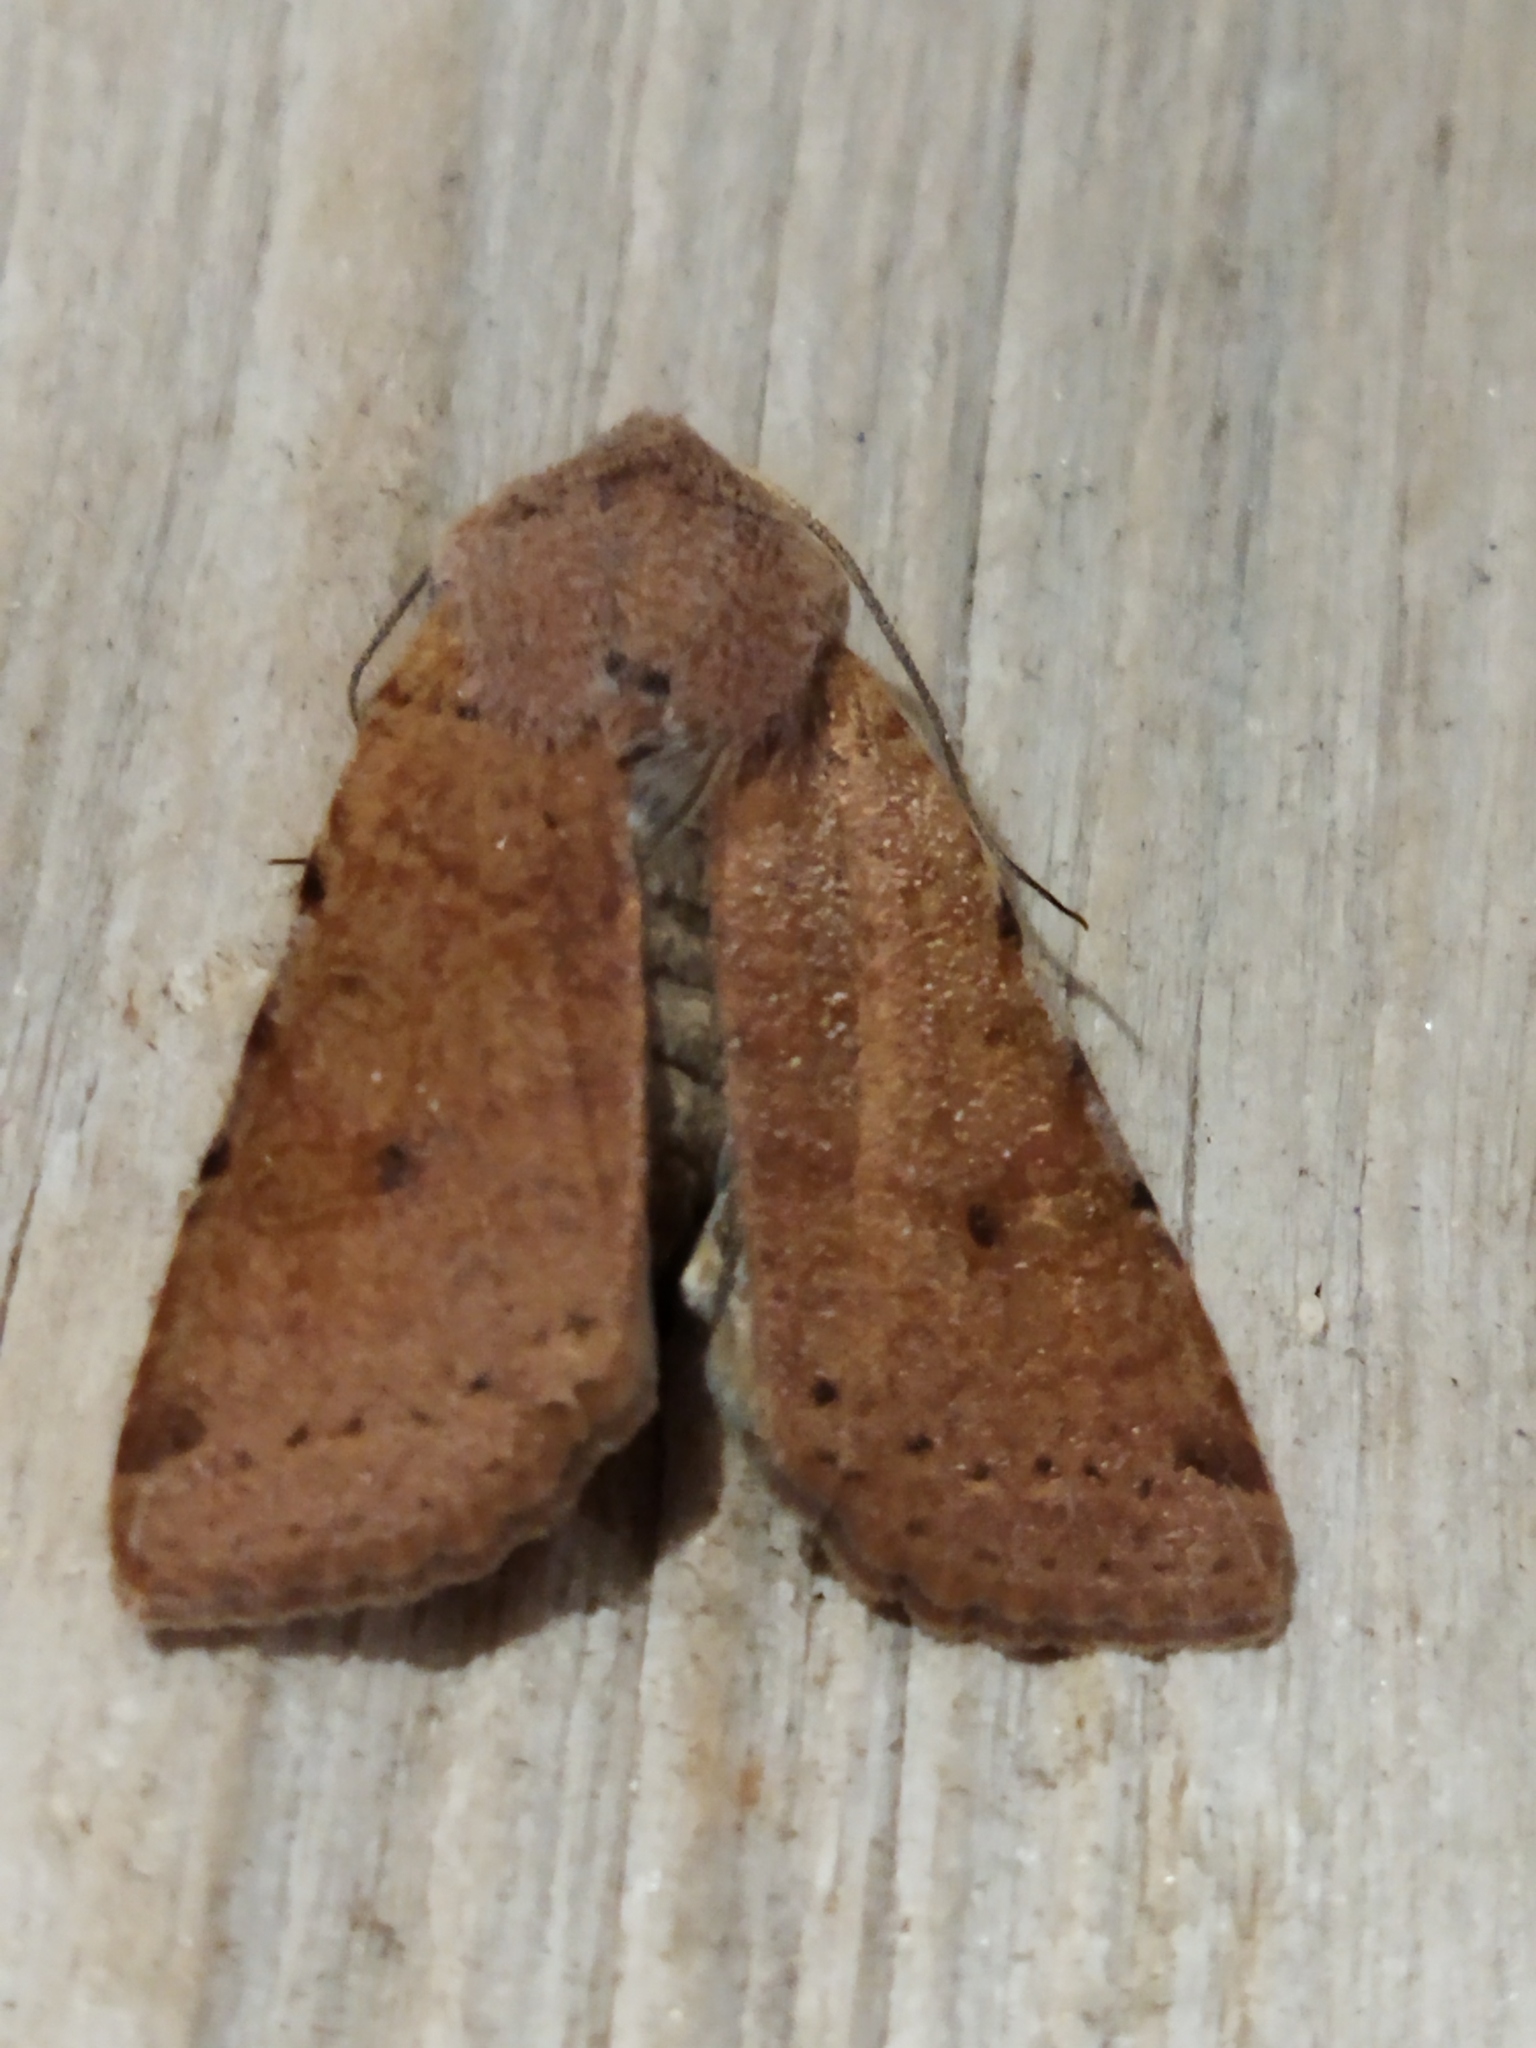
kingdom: Animalia
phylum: Arthropoda
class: Insecta
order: Lepidoptera
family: Noctuidae
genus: Agrochola
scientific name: Agrochola lychnidis
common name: Beaded chestnut
